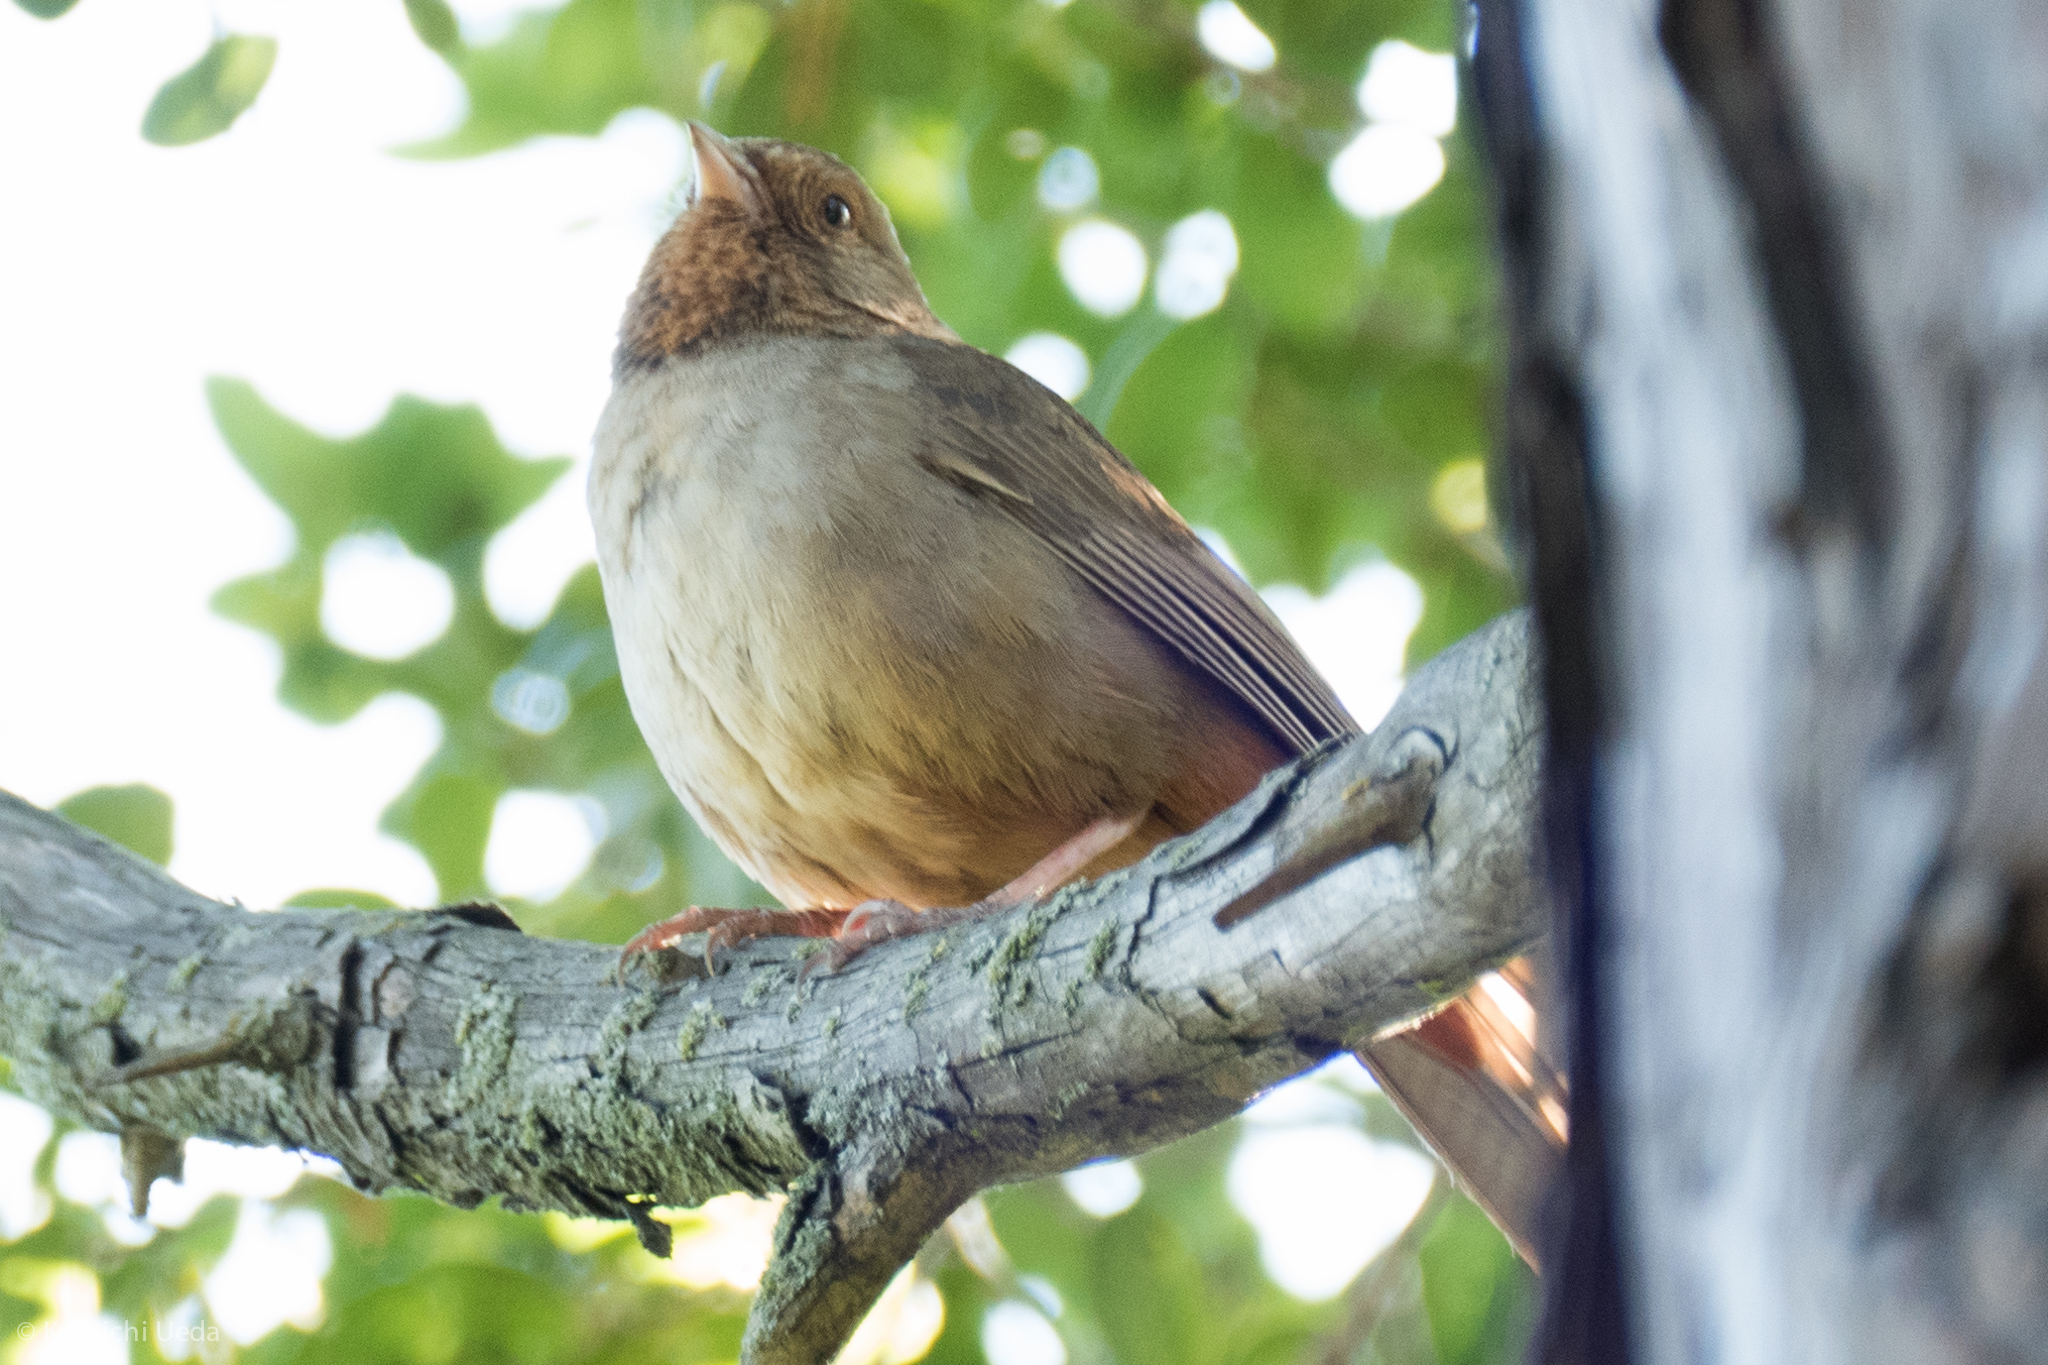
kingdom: Animalia
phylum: Chordata
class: Aves
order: Passeriformes
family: Passerellidae
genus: Melozone
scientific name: Melozone crissalis
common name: California towhee
